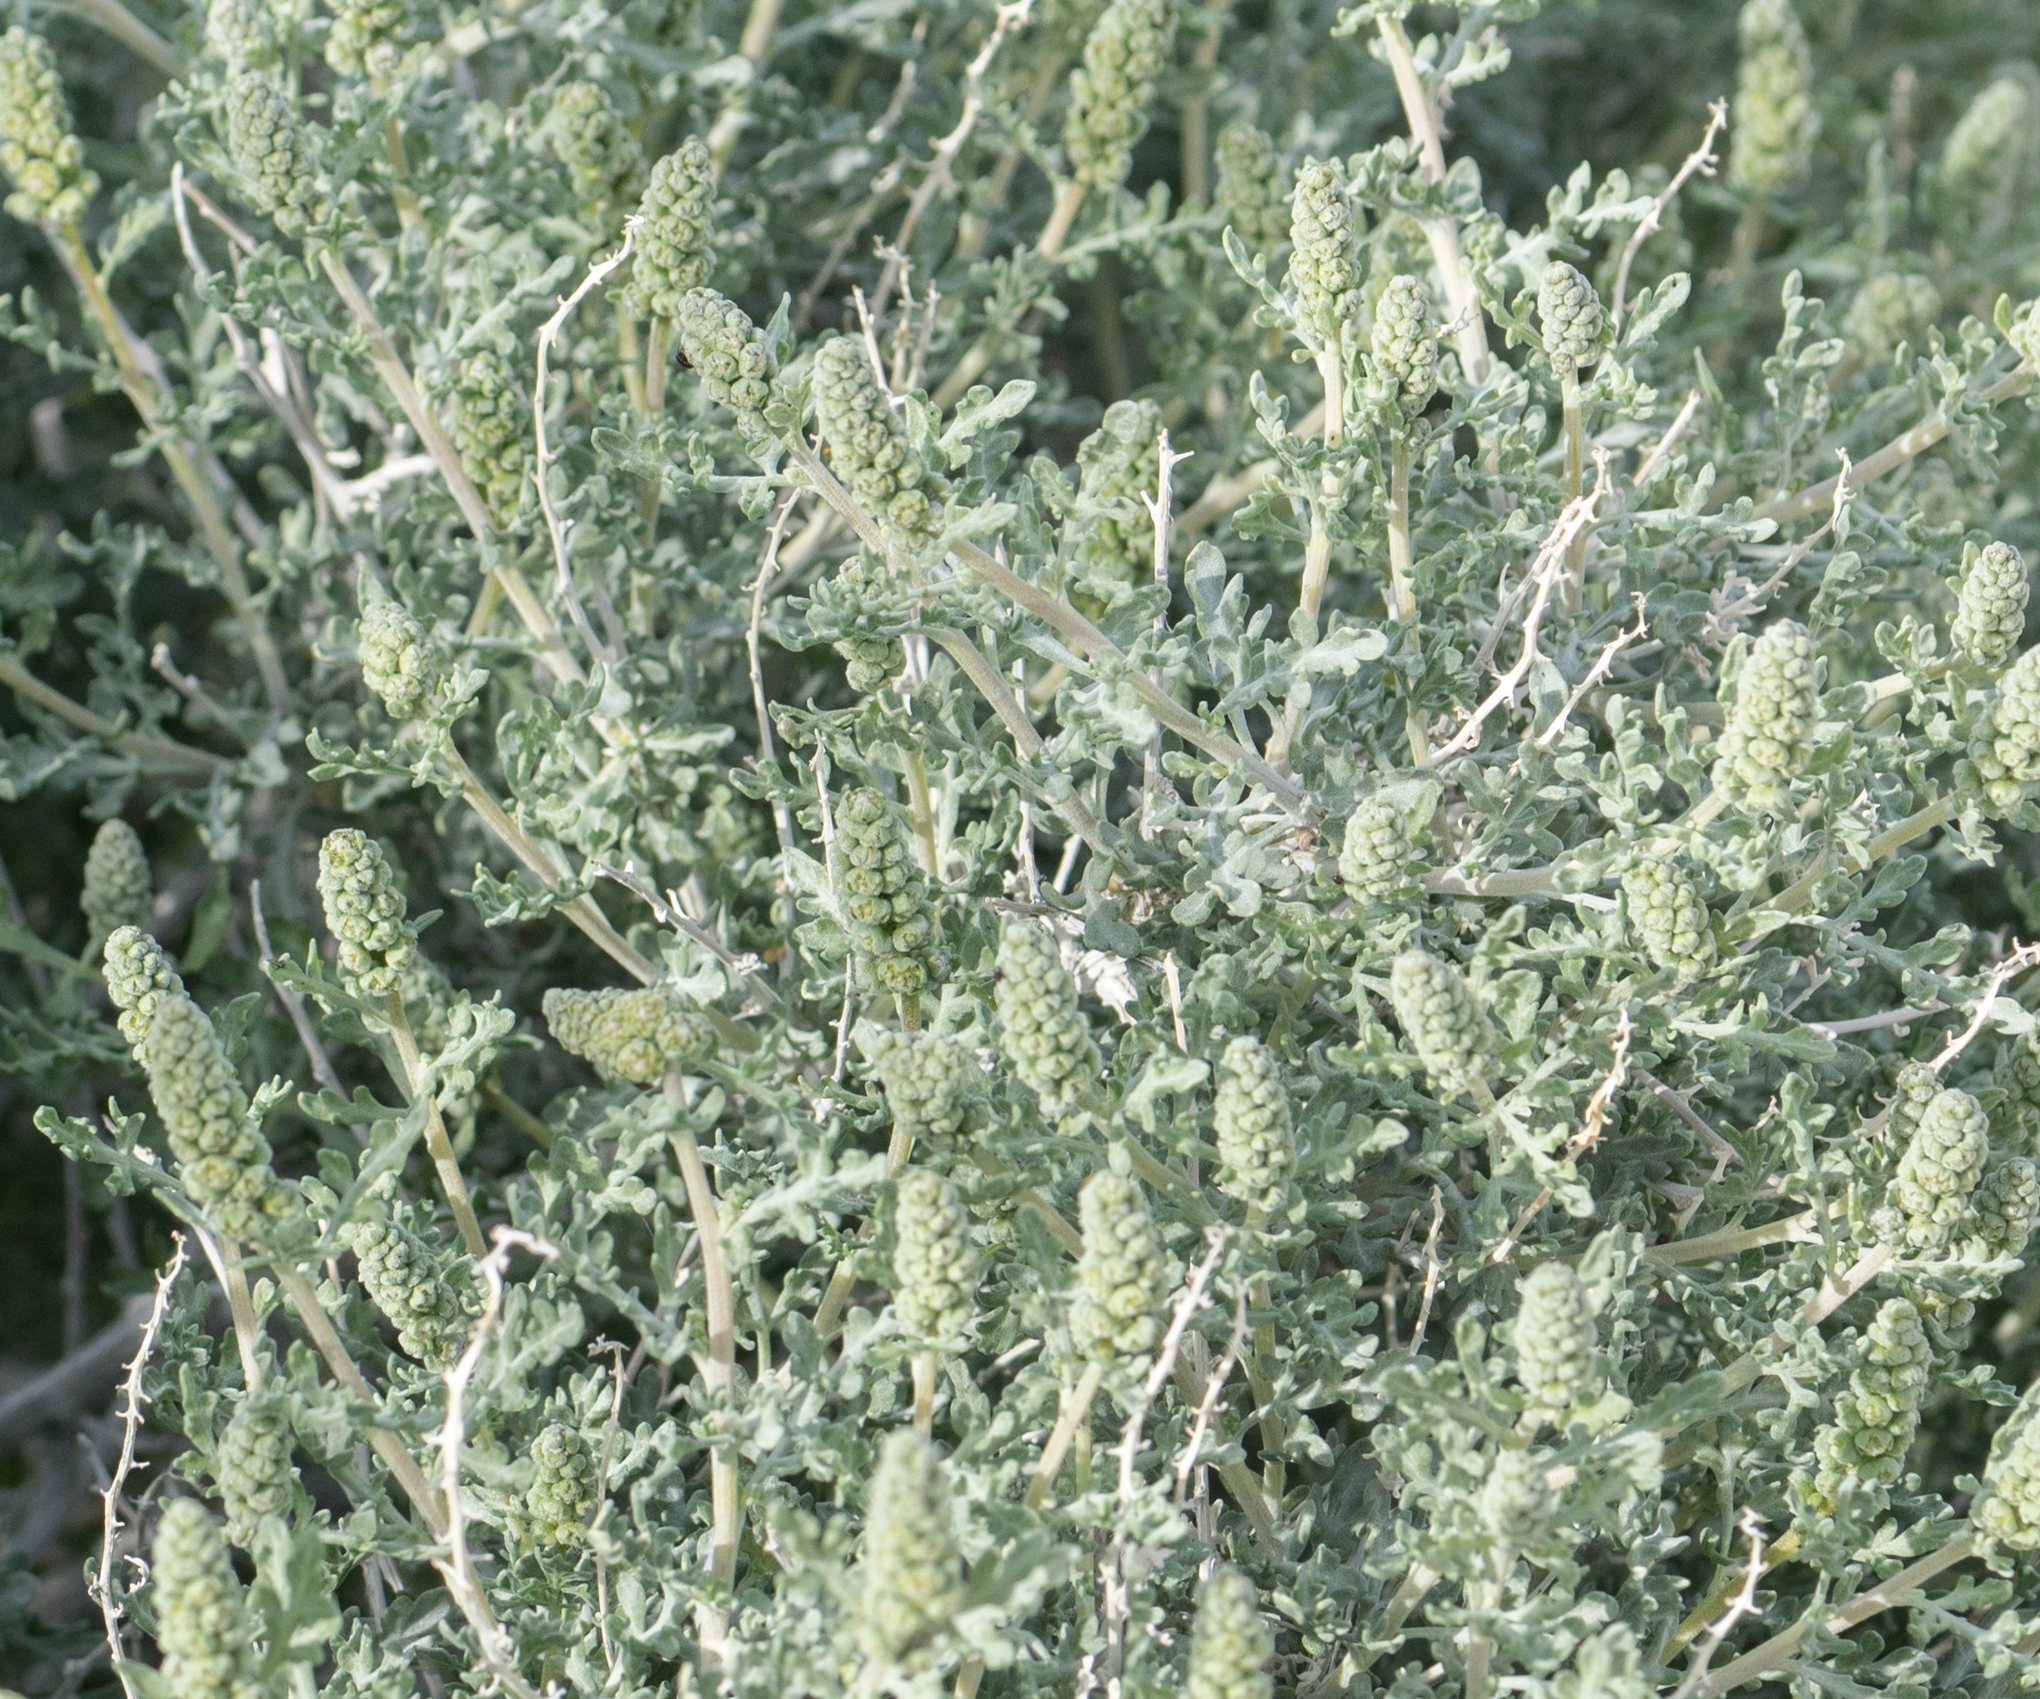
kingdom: Plantae
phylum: Tracheophyta
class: Magnoliopsida
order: Asterales
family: Asteraceae
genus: Ambrosia
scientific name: Ambrosia dumosa
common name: Bur-sage
